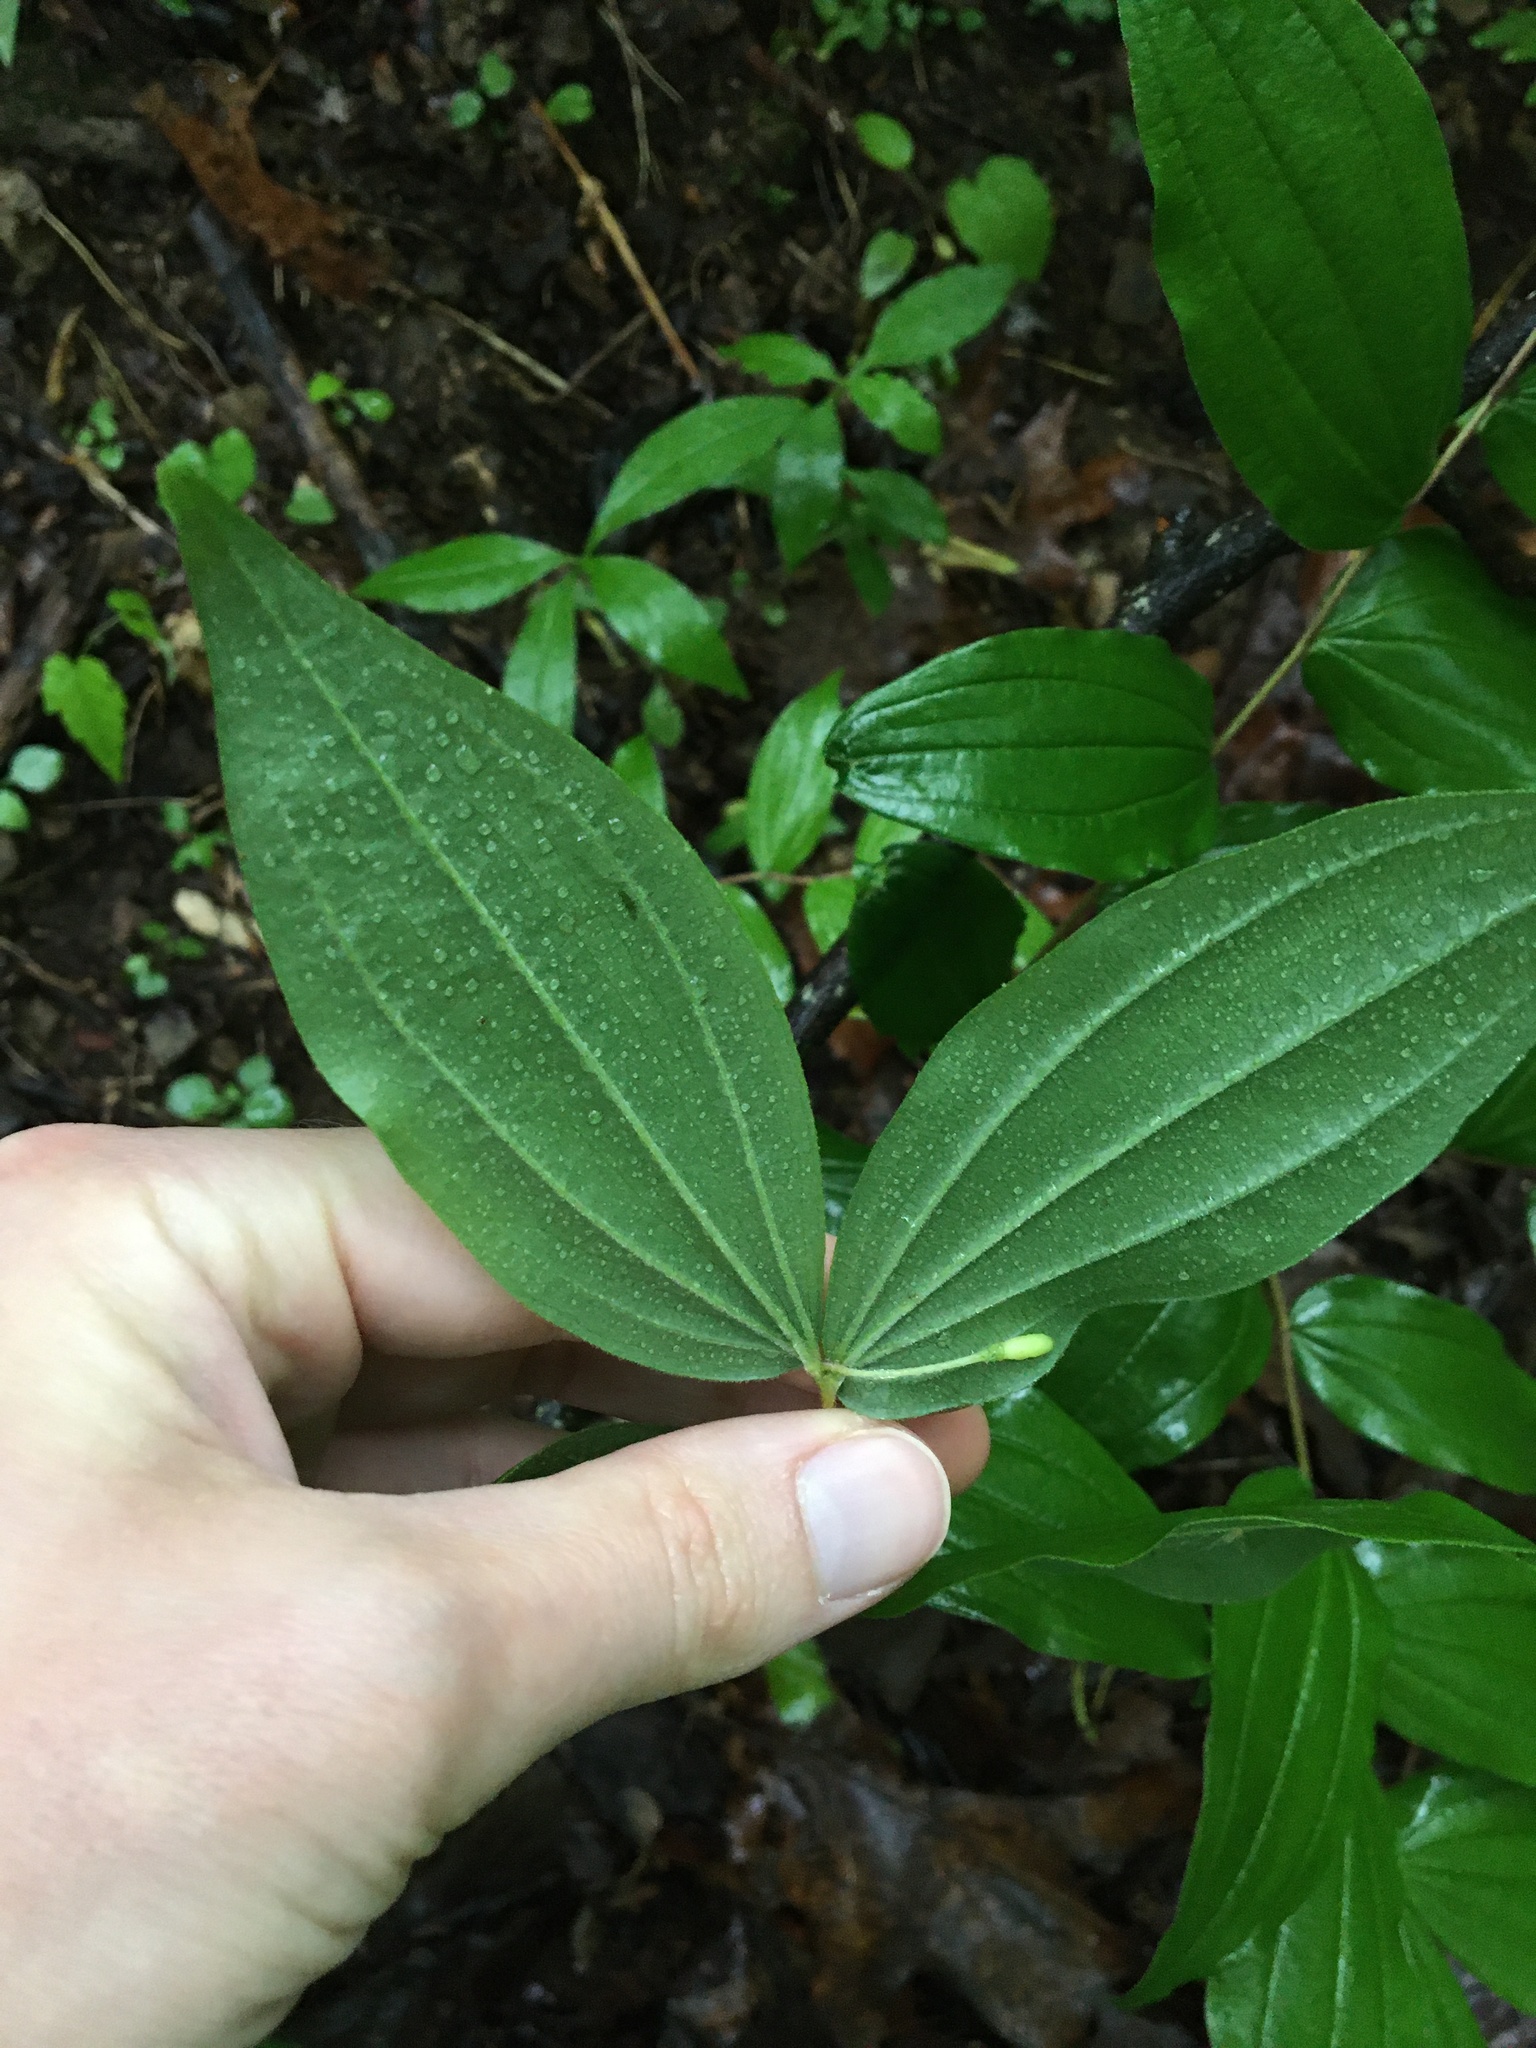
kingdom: Plantae
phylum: Tracheophyta
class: Liliopsida
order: Liliales
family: Liliaceae
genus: Medeola
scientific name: Medeola virginiana
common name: Indian cucumber-root
